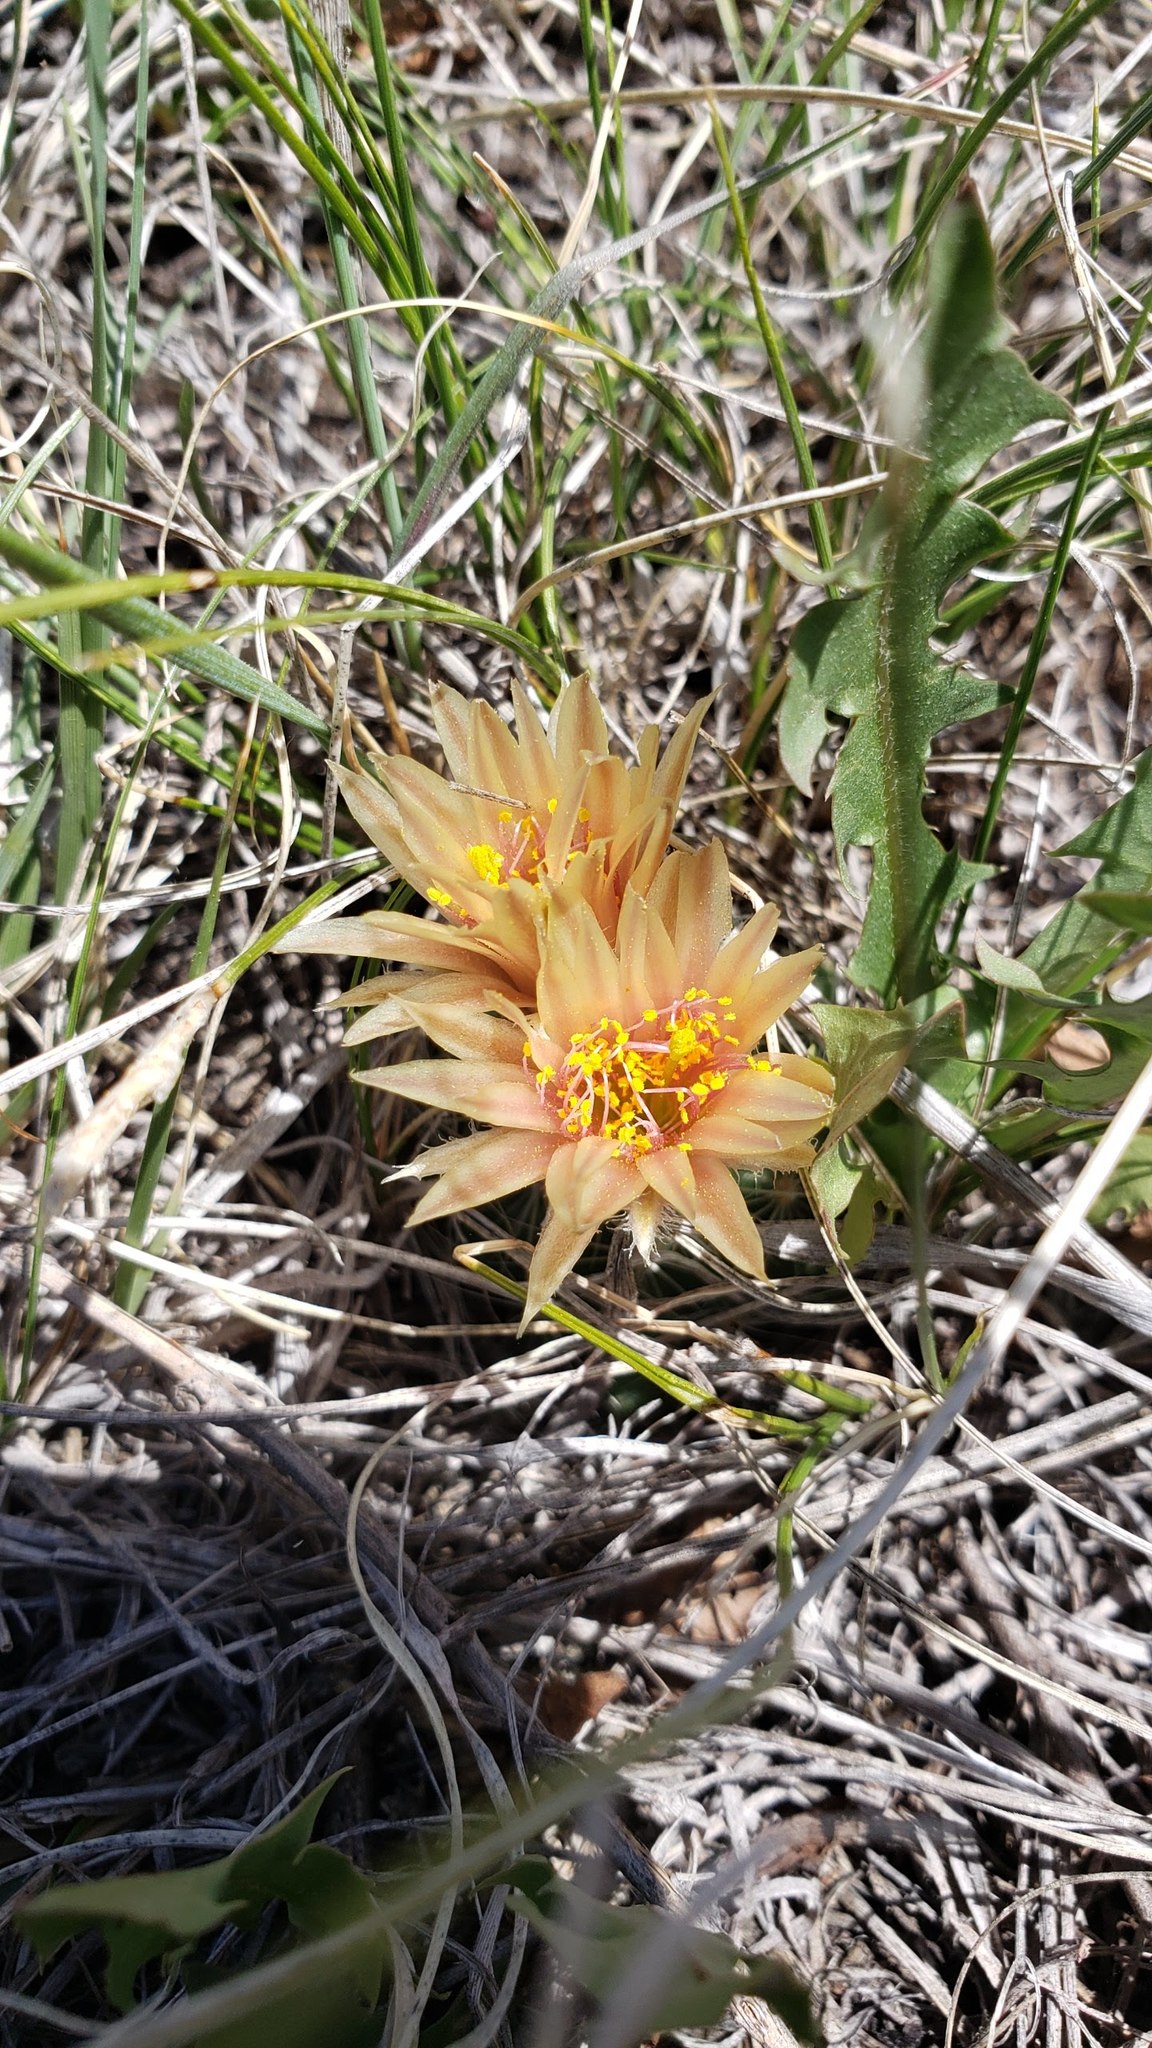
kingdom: Plantae
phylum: Tracheophyta
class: Magnoliopsida
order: Caryophyllales
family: Cactaceae
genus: Pelecyphora
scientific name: Pelecyphora missouriensis
